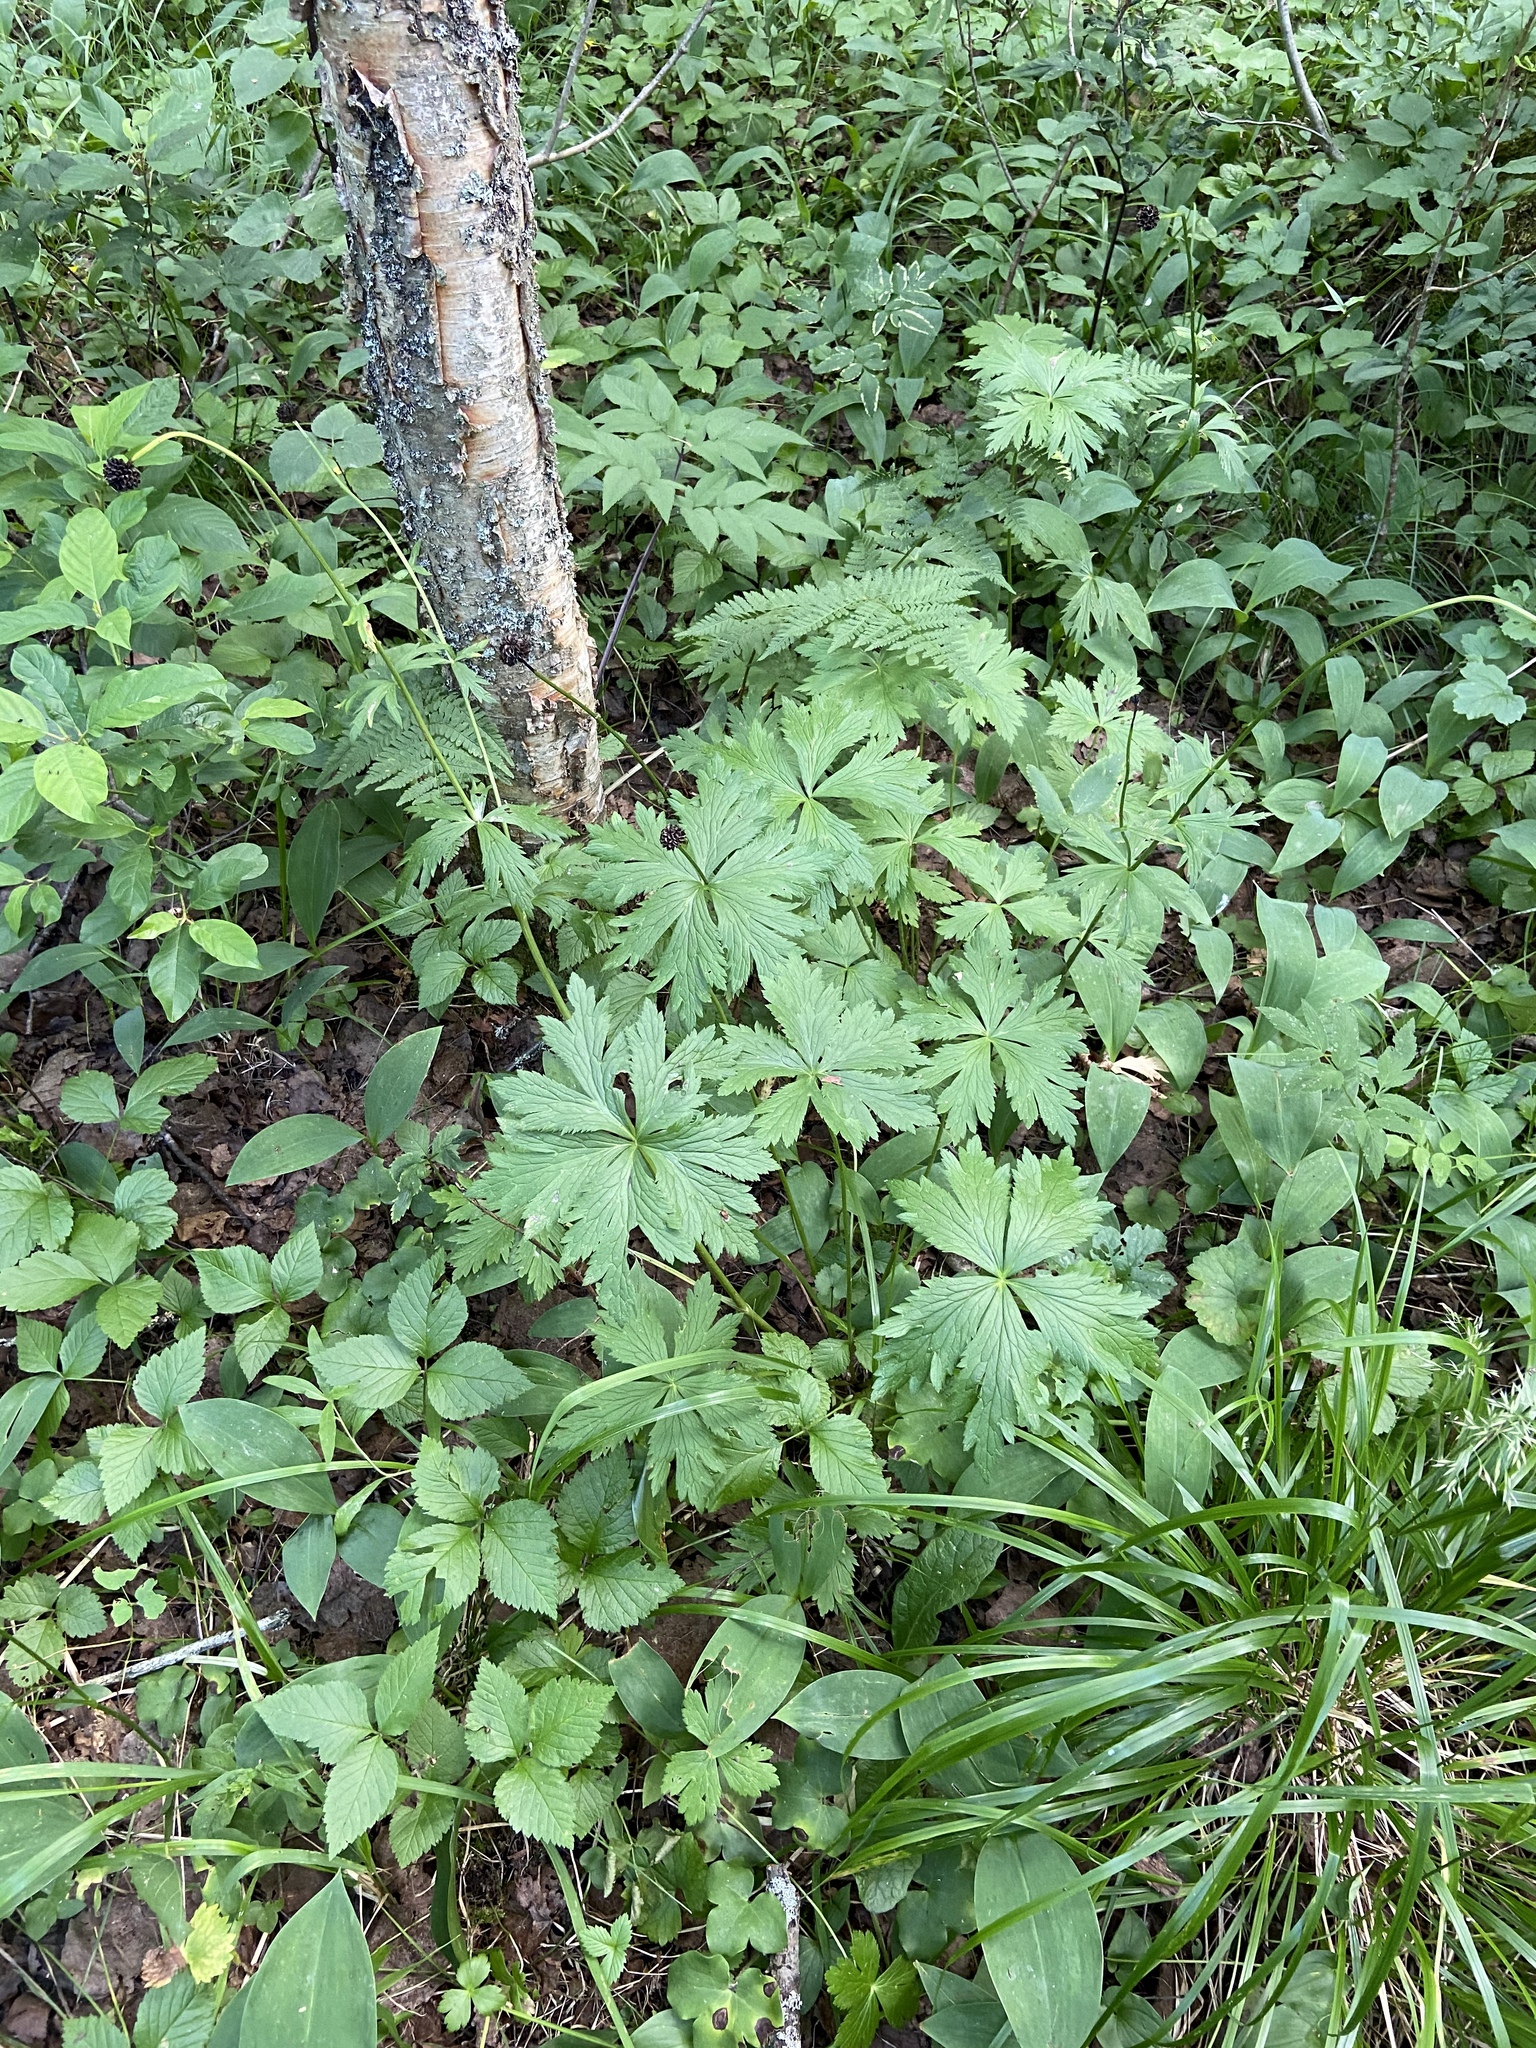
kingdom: Plantae
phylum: Tracheophyta
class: Magnoliopsida
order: Ranunculales
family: Ranunculaceae
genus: Trollius
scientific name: Trollius europaeus
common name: European globeflower
